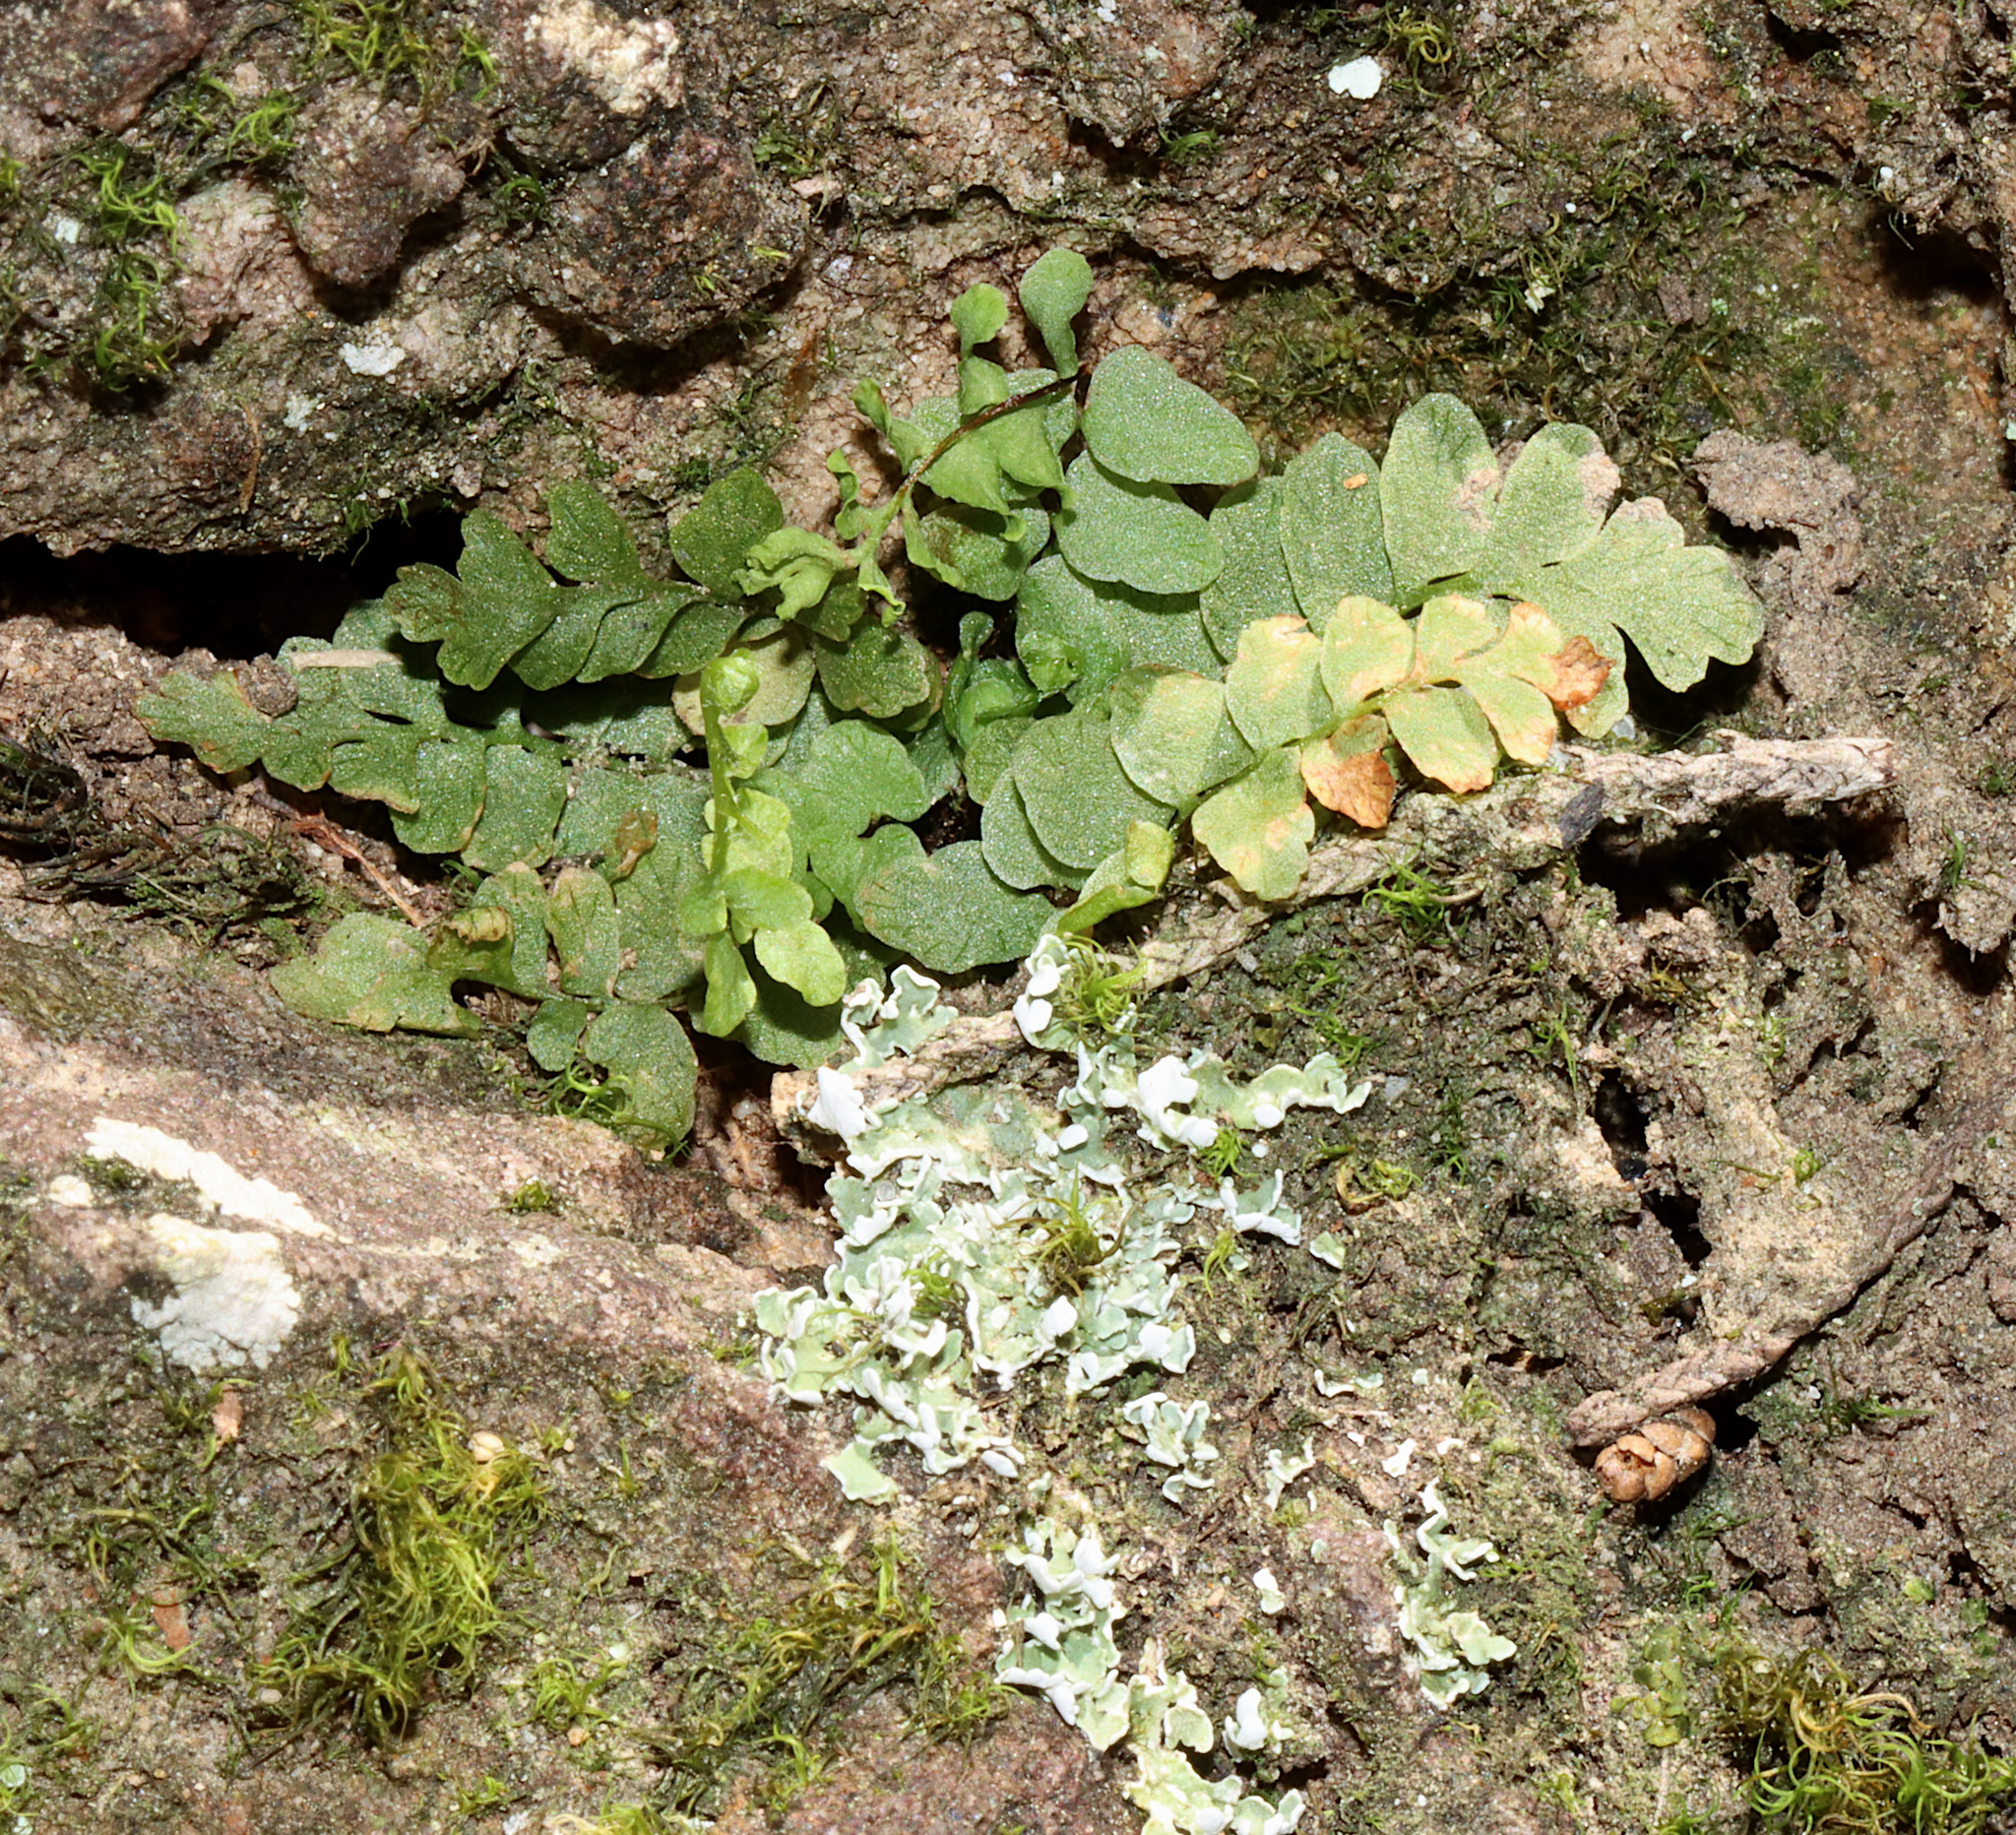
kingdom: Plantae
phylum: Tracheophyta
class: Polypodiopsida
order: Polypodiales
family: Aspleniaceae
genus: Asplenium
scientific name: Asplenium platyneuron
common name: Ebony spleenwort
